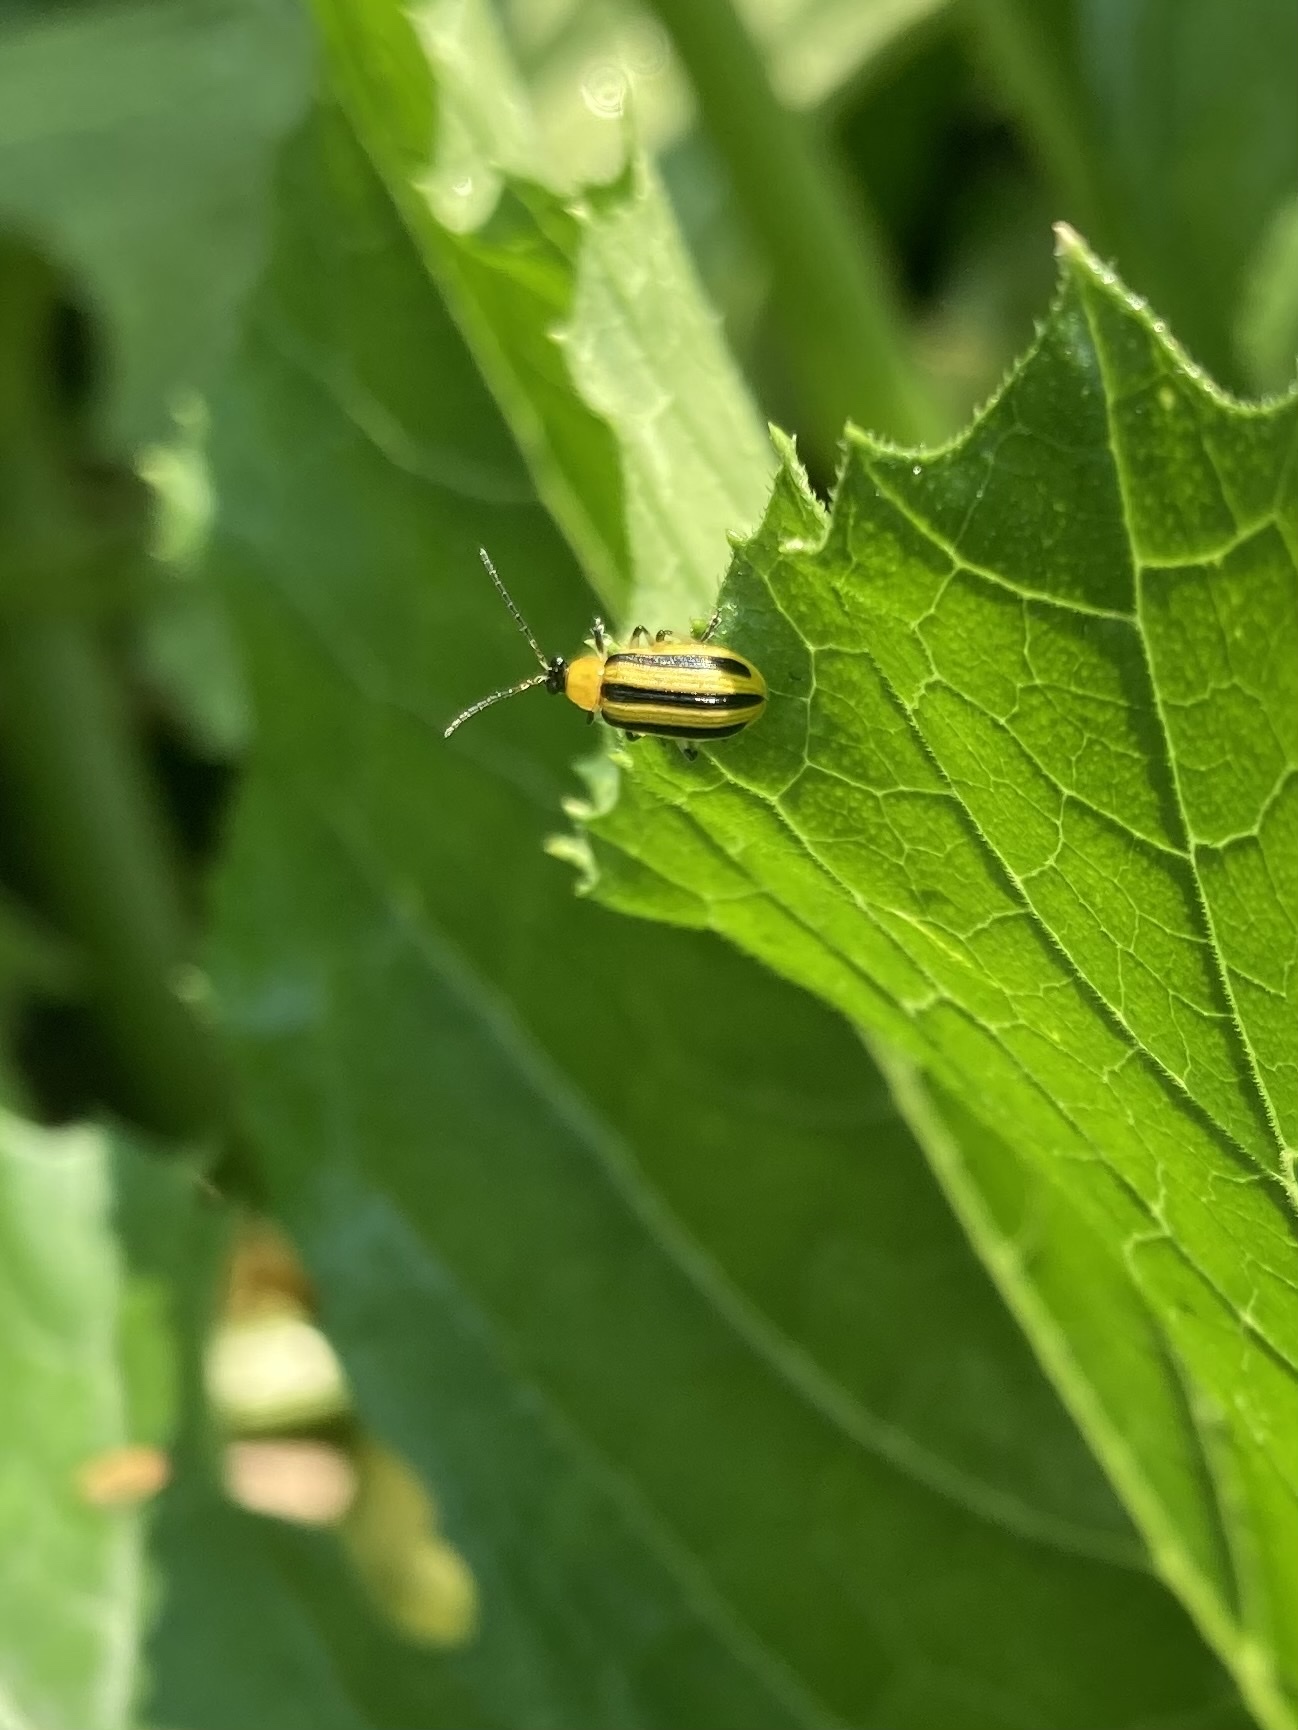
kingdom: Animalia
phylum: Arthropoda
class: Insecta
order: Coleoptera
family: Chrysomelidae
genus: Acalymma
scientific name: Acalymma vittatum
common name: Striped cucumber beetle
